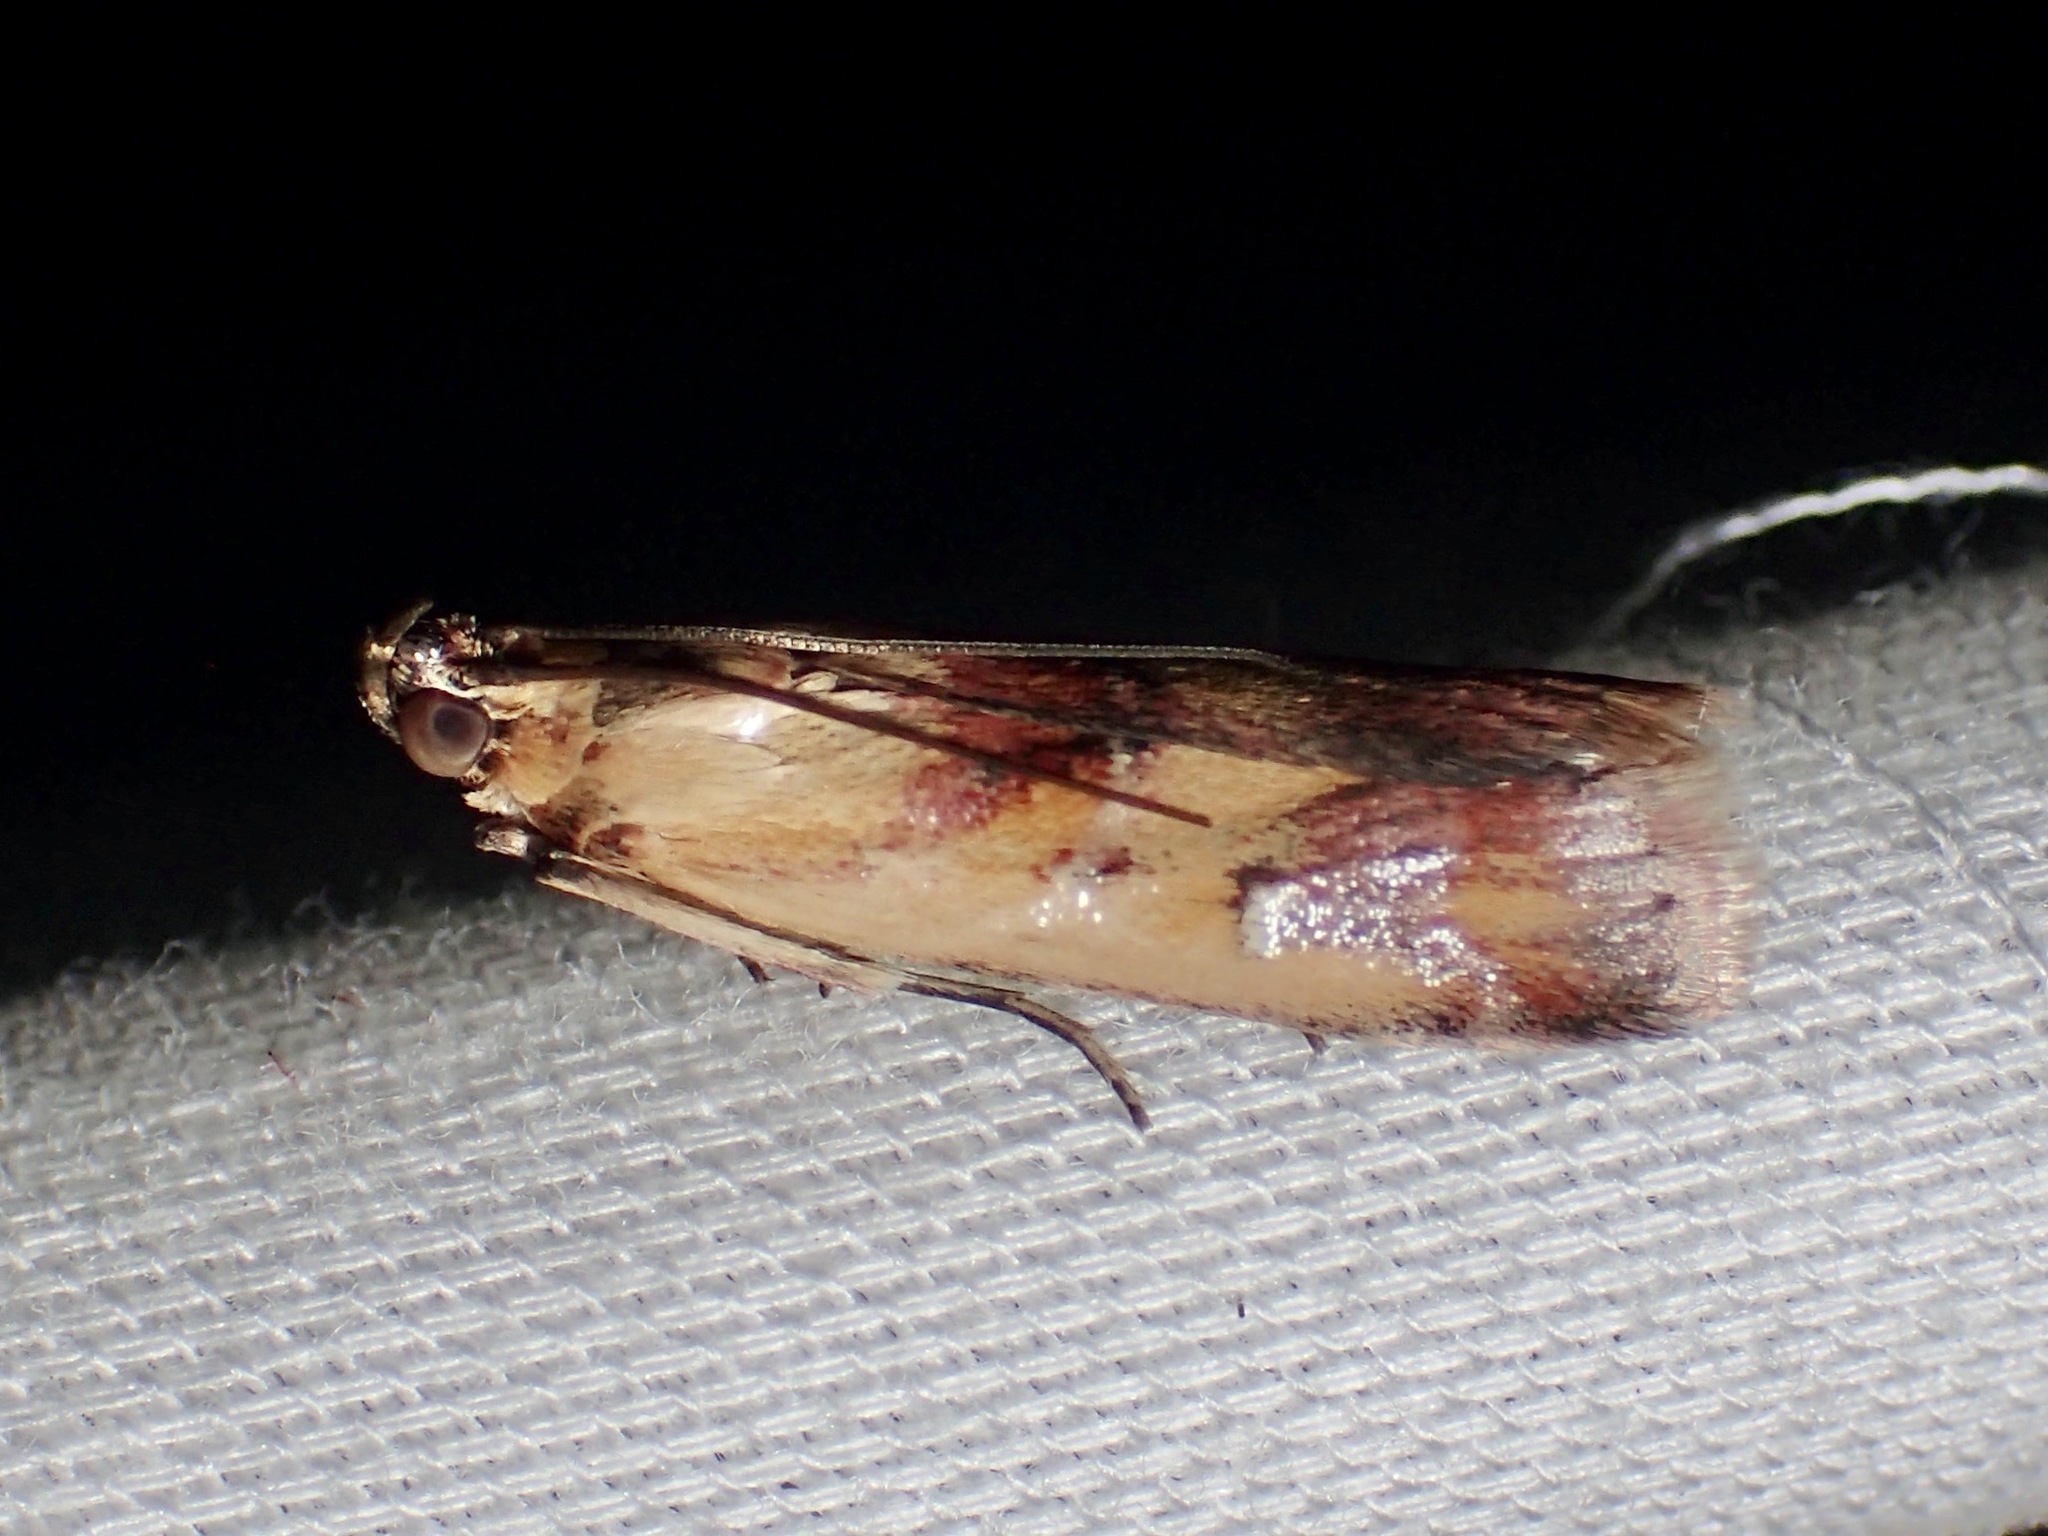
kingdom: Animalia
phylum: Arthropoda
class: Insecta
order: Lepidoptera
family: Pyralidae
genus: Epicrocis
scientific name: Epicrocis metallopa
